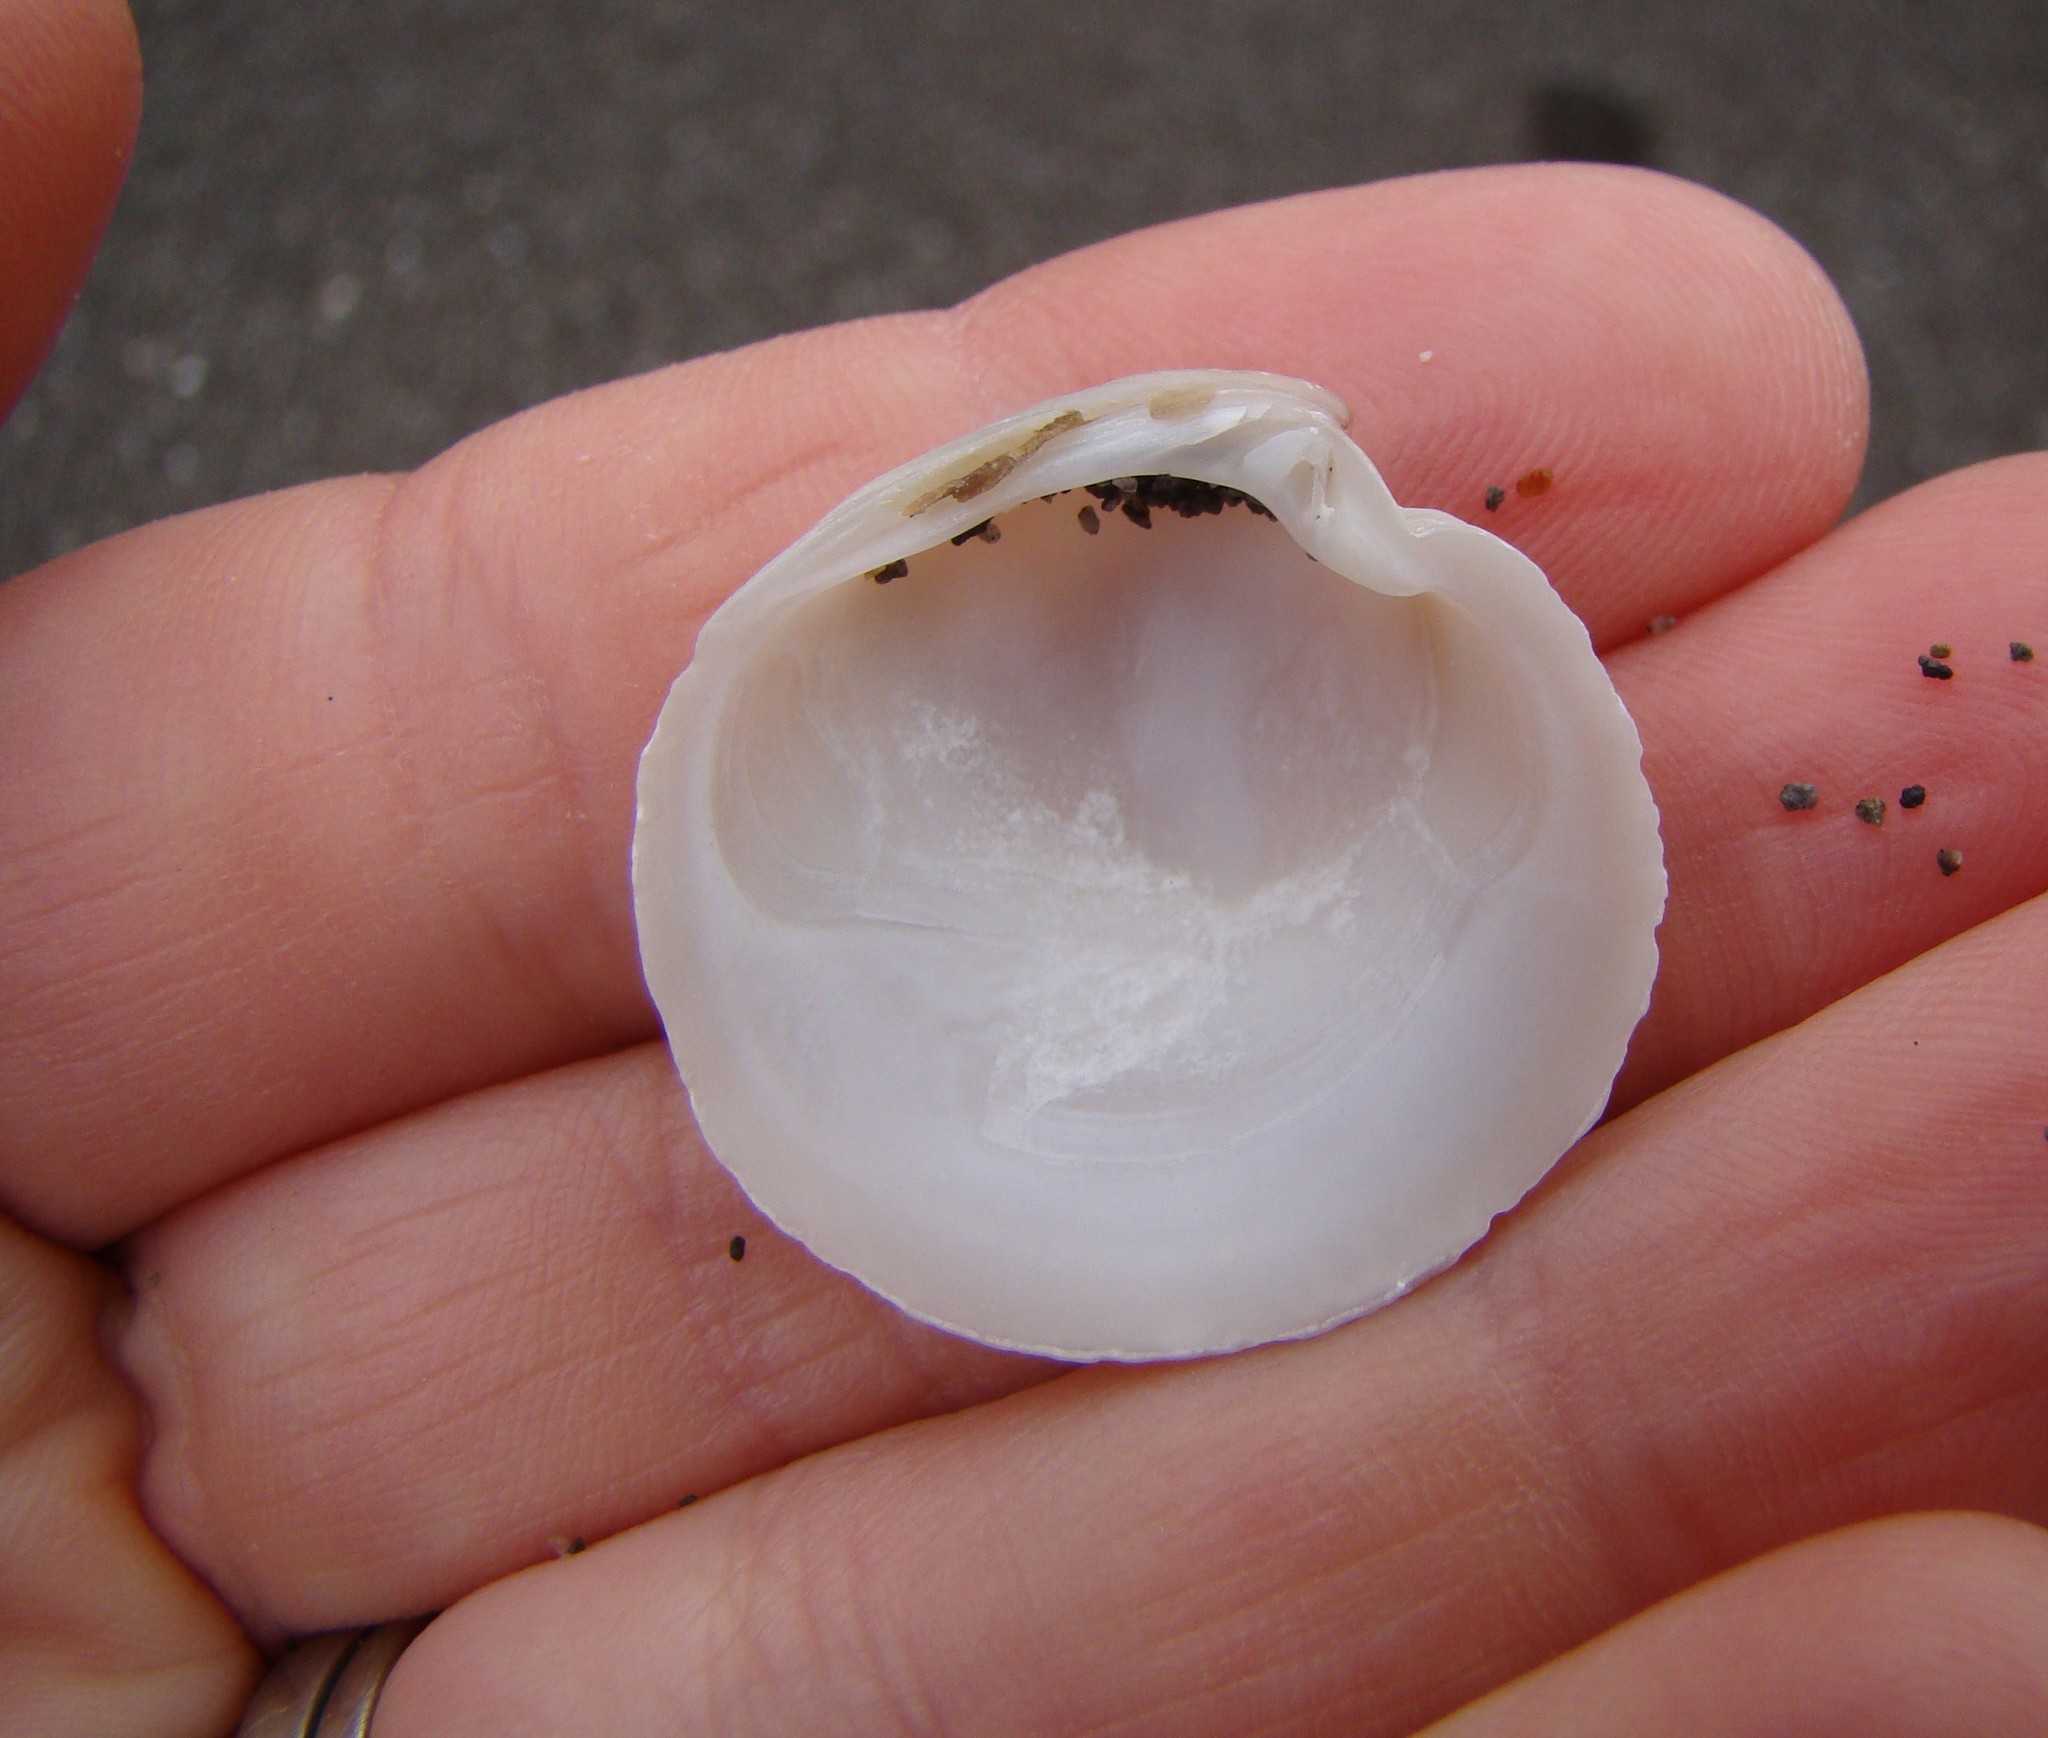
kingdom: Animalia
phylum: Mollusca
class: Bivalvia
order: Venerida
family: Veneridae
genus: Dosinia
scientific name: Dosinia anus
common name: Old-woman dosinia
